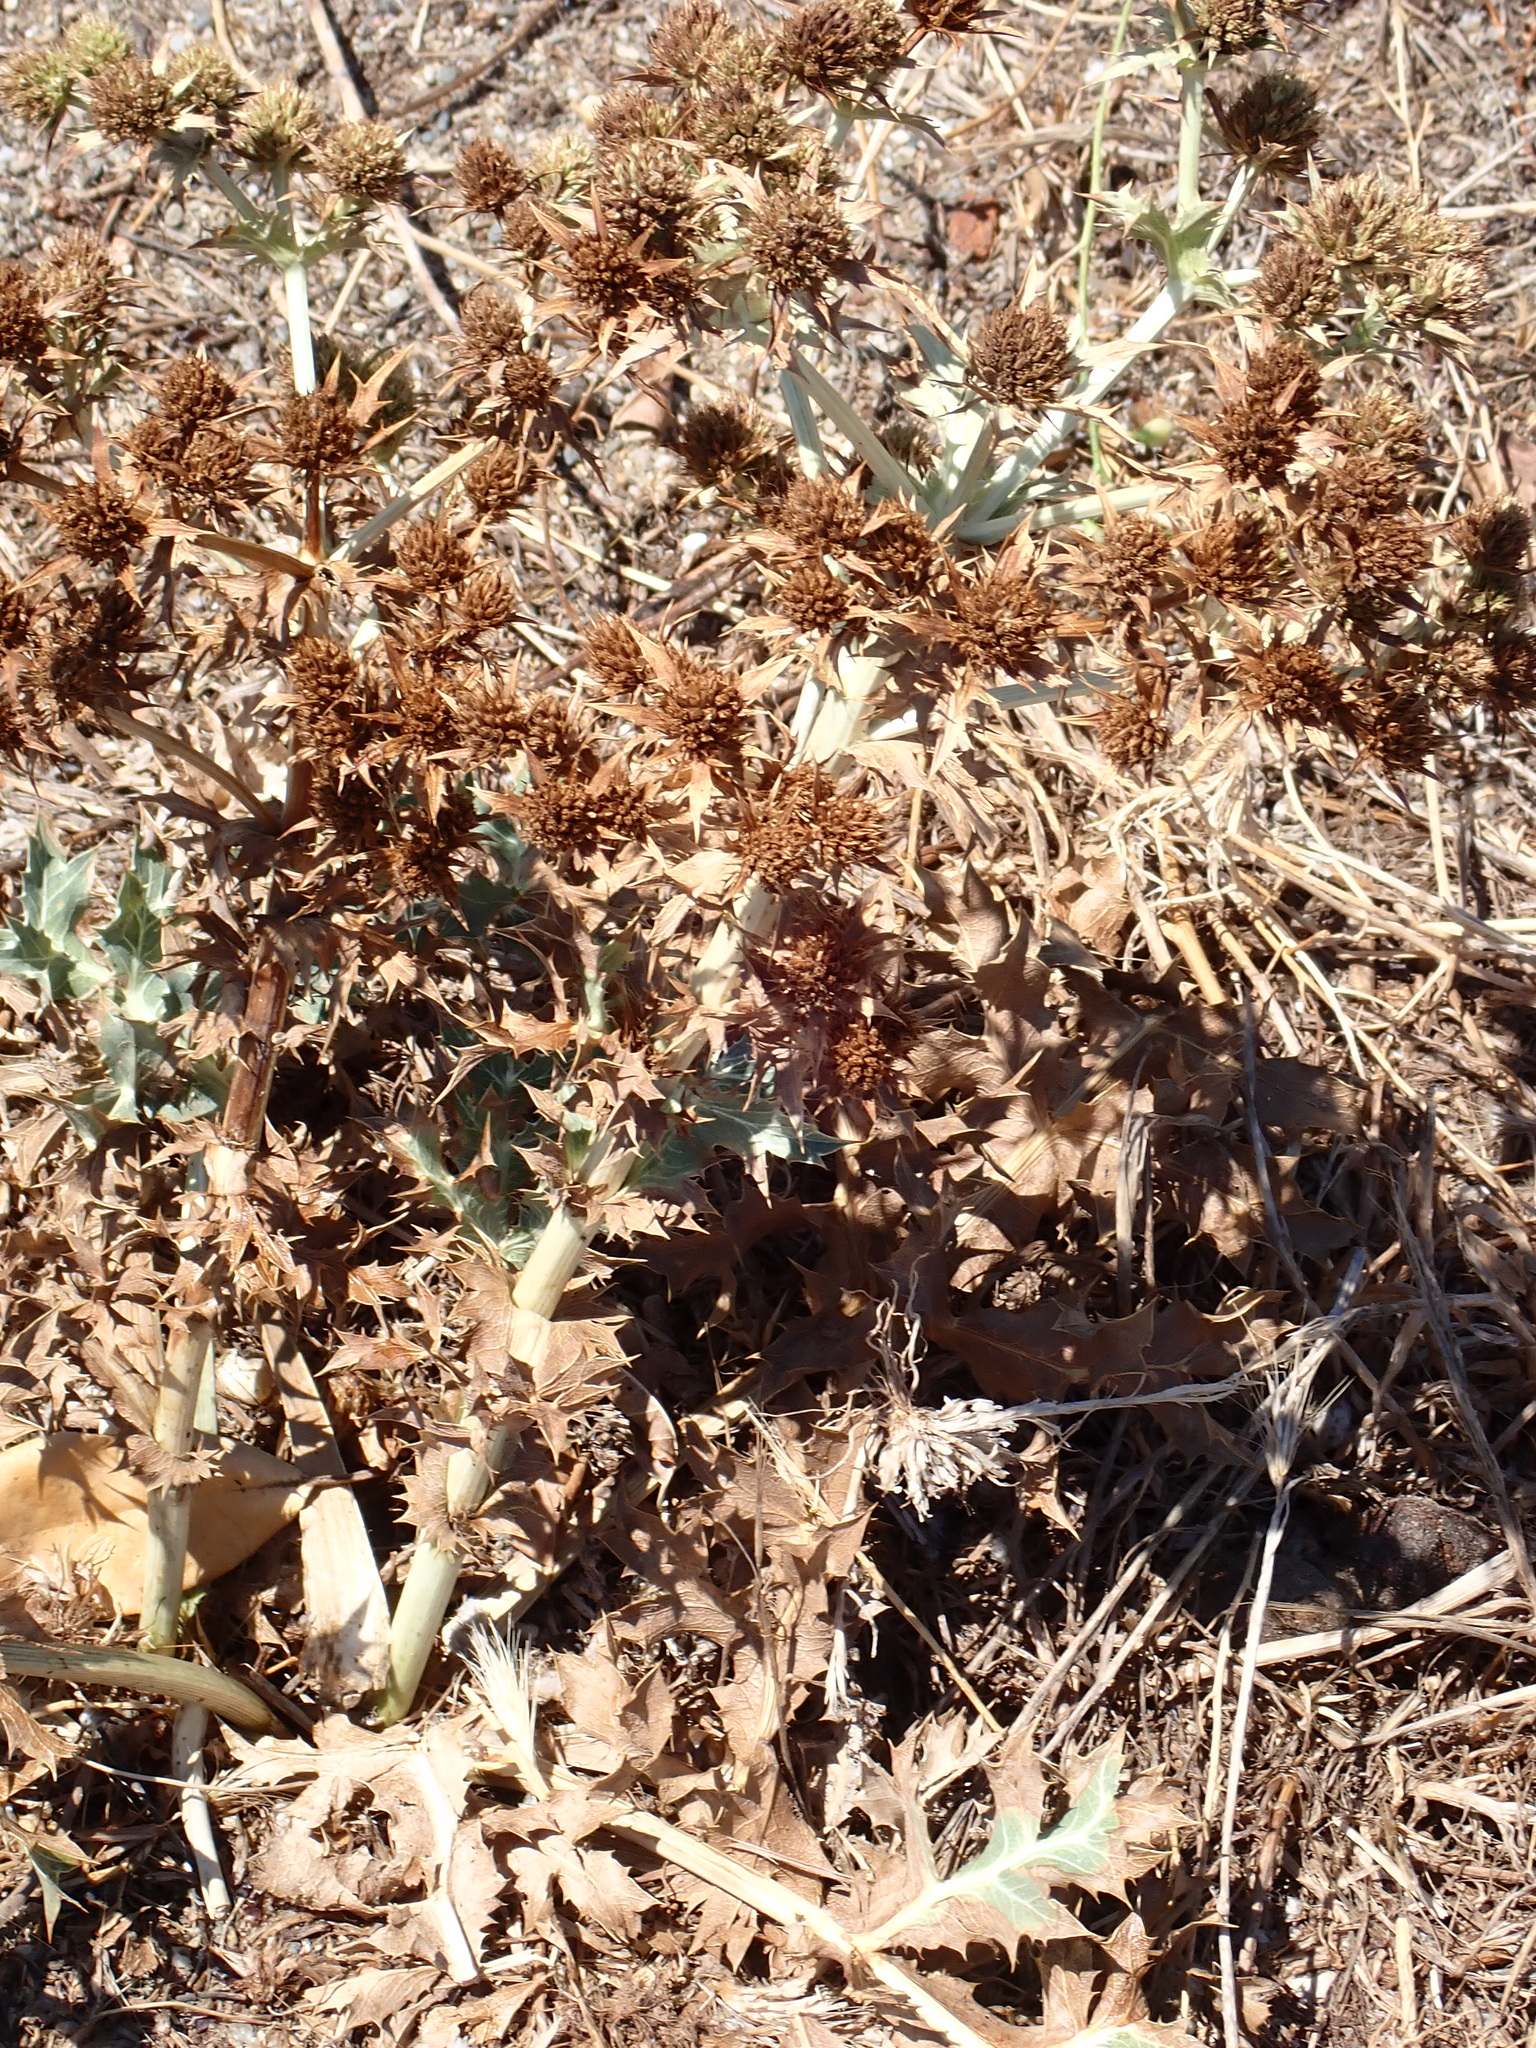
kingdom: Plantae
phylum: Tracheophyta
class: Magnoliopsida
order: Apiales
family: Apiaceae
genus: Eryngium
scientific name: Eryngium campestre
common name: Field eryngo
